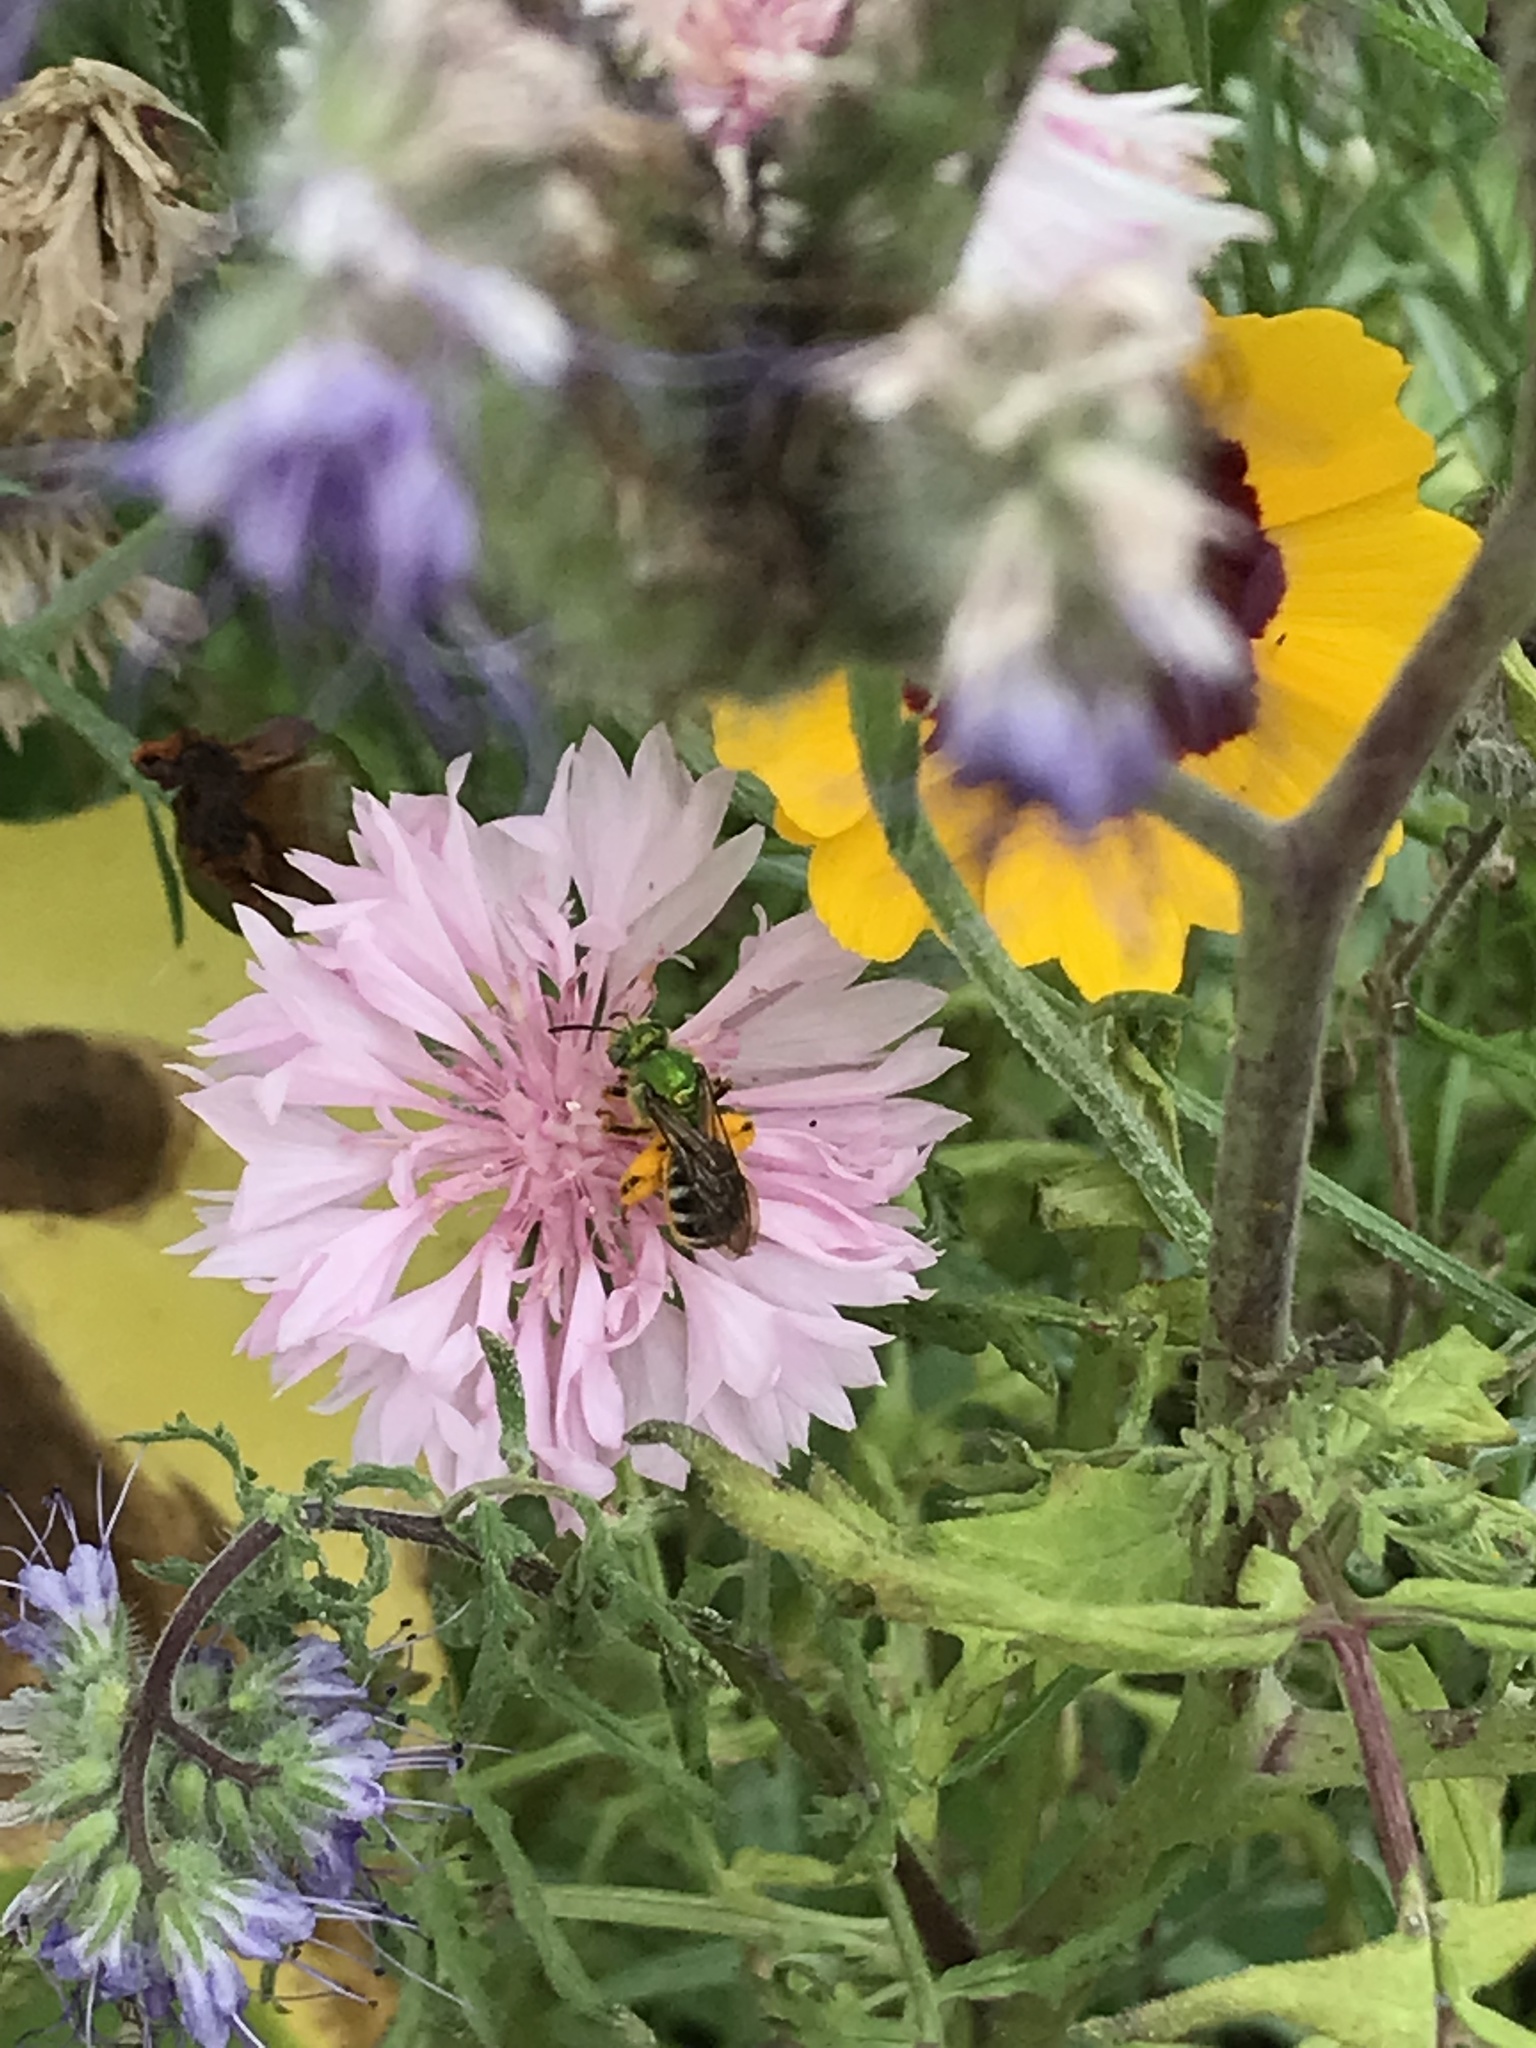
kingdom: Animalia
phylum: Arthropoda
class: Insecta
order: Hymenoptera
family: Halictidae
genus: Agapostemon
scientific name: Agapostemon virescens
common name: Bicolored striped sweat bee
